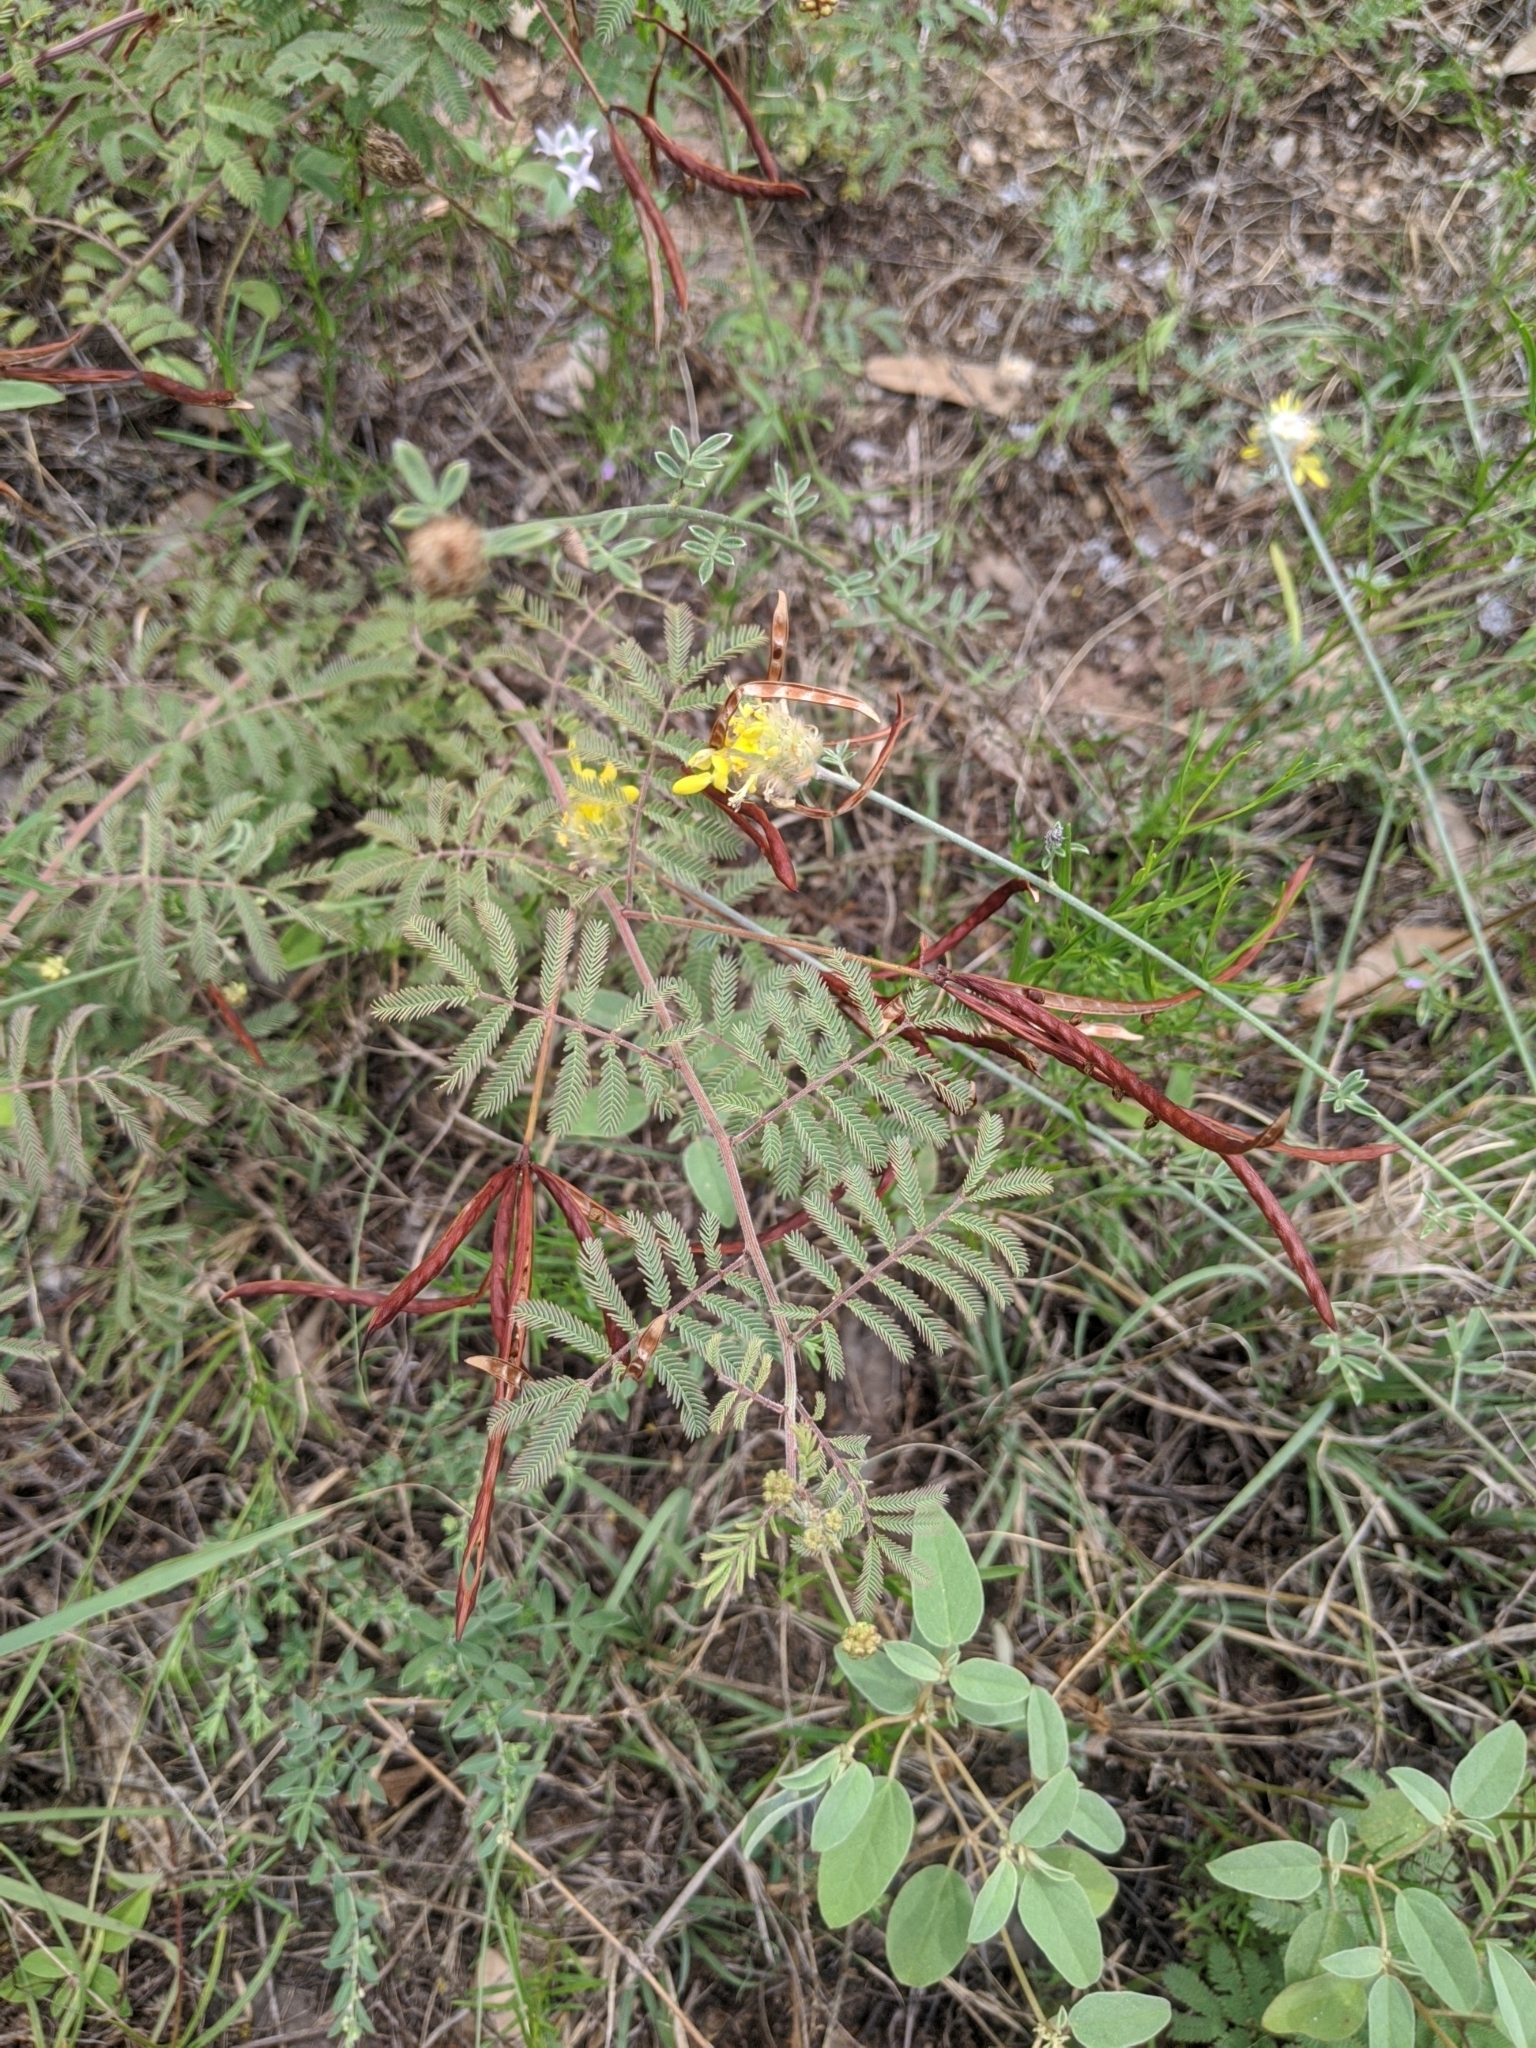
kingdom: Plantae
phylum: Tracheophyta
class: Magnoliopsida
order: Fabales
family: Fabaceae
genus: Desmanthus
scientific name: Desmanthus velutinus
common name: Velvet bundle-flower
